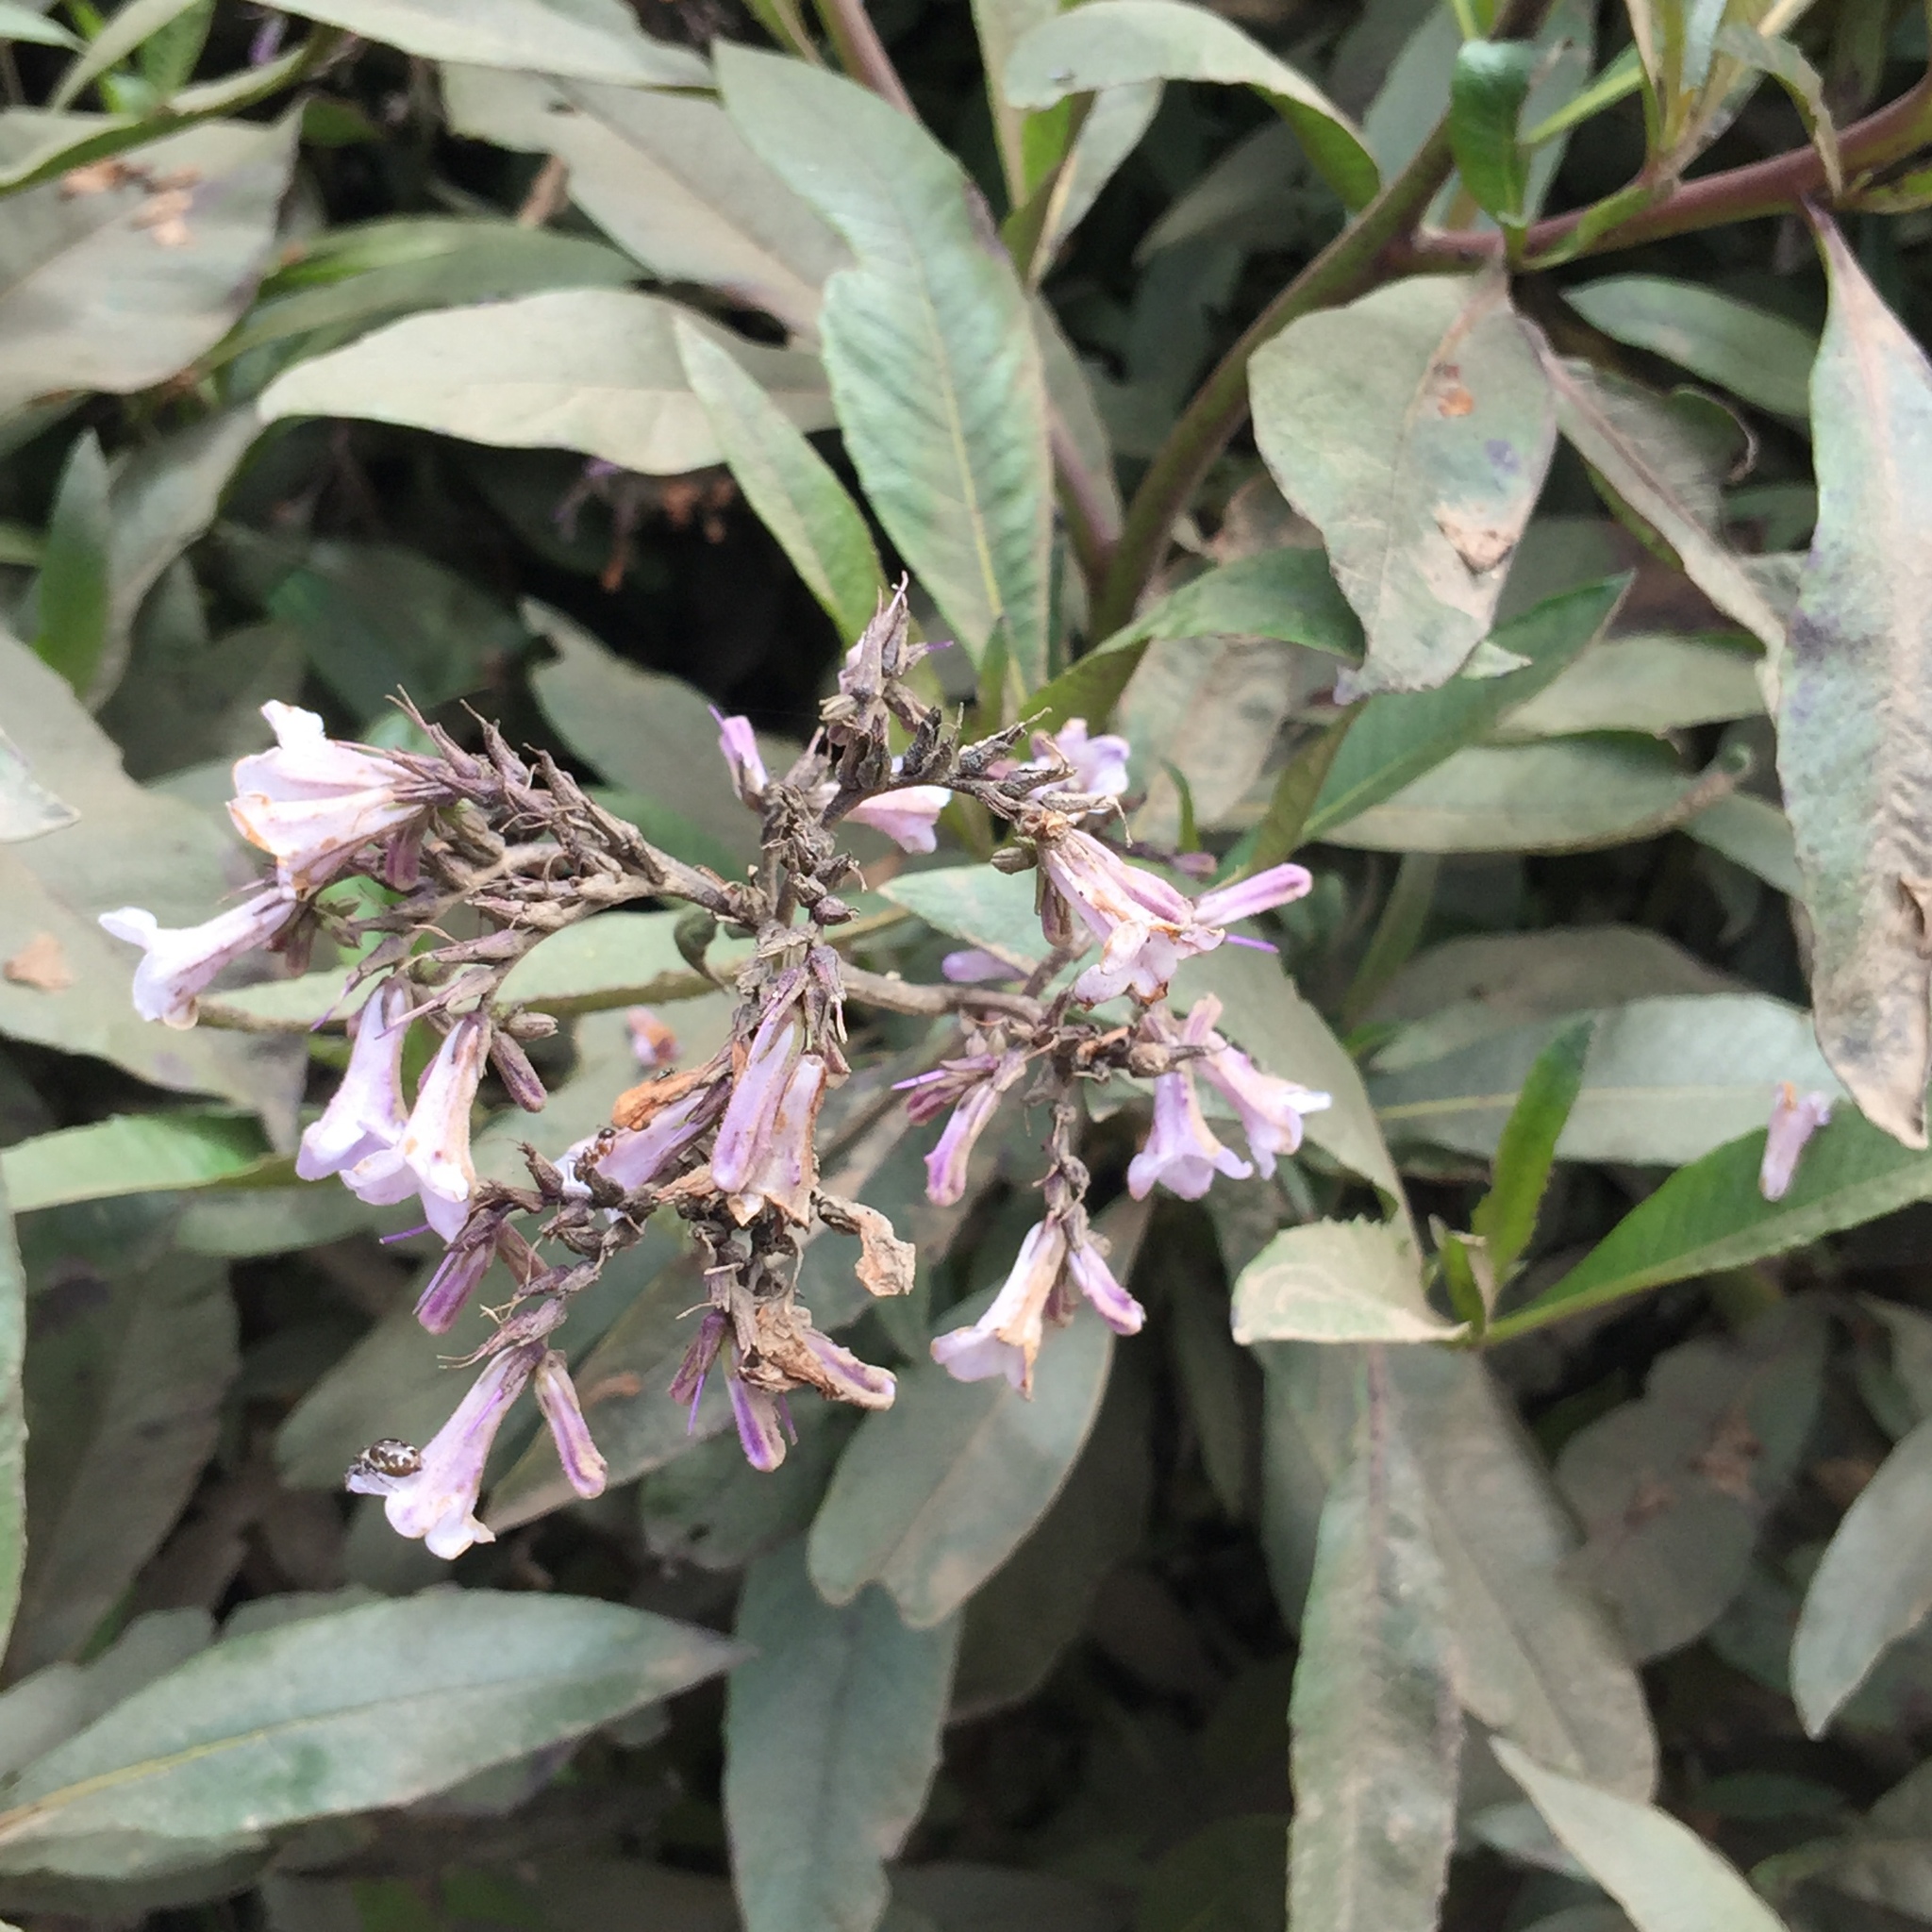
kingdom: Plantae
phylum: Tracheophyta
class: Magnoliopsida
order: Boraginales
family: Namaceae
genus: Eriodictyon
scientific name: Eriodictyon californicum
